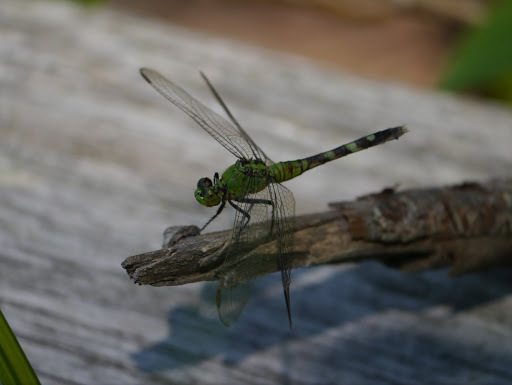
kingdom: Animalia
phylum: Arthropoda
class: Insecta
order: Odonata
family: Libellulidae
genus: Erythemis
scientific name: Erythemis simplicicollis
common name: Eastern pondhawk
